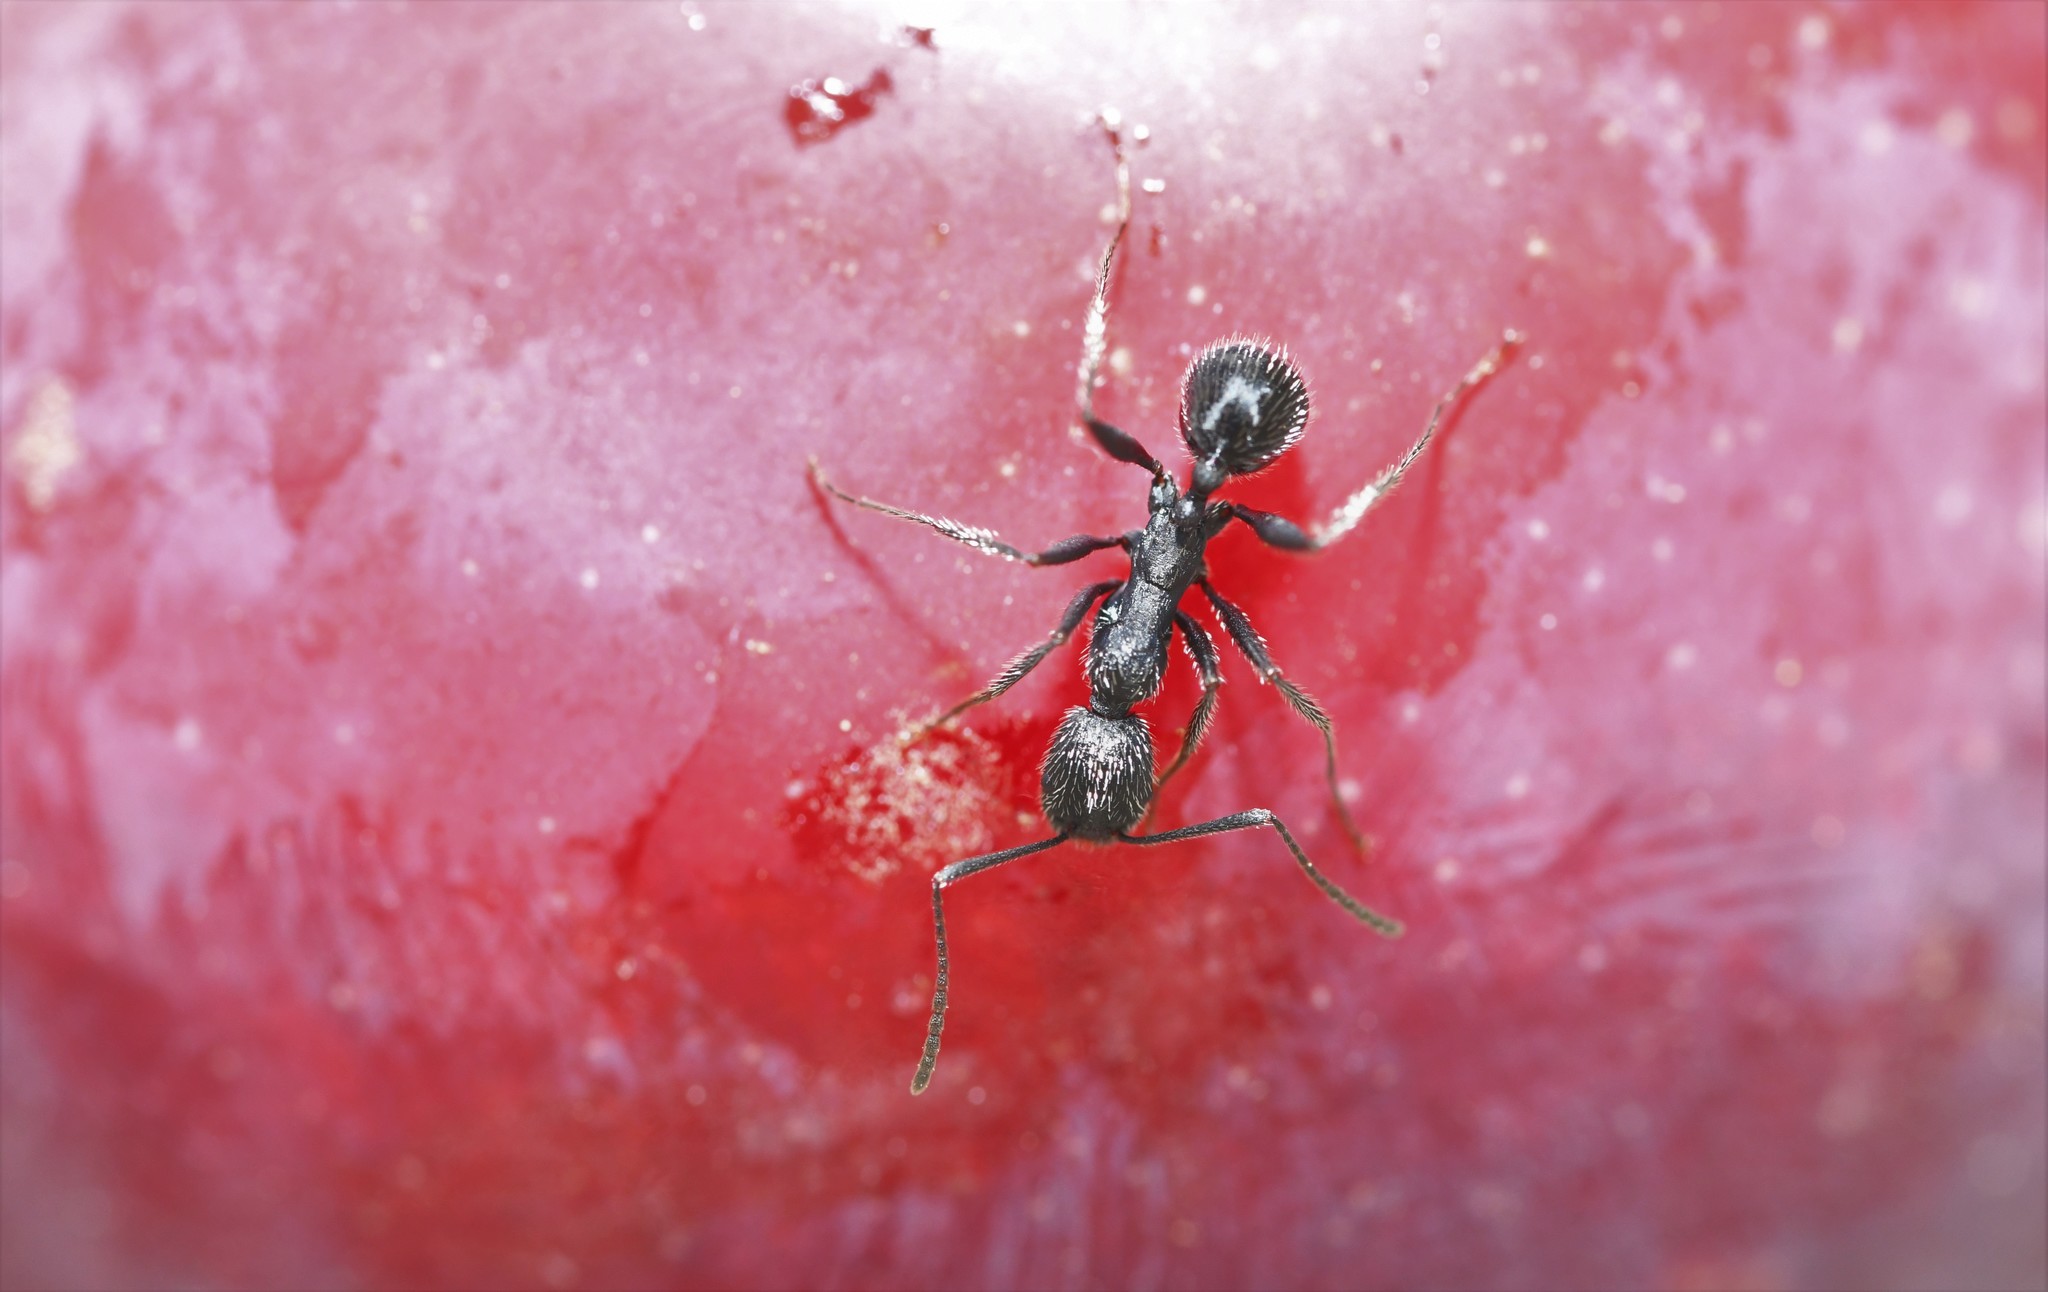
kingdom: Animalia
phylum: Arthropoda
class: Insecta
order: Hymenoptera
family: Formicidae
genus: Aphaenogaster
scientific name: Aphaenogaster senilis
